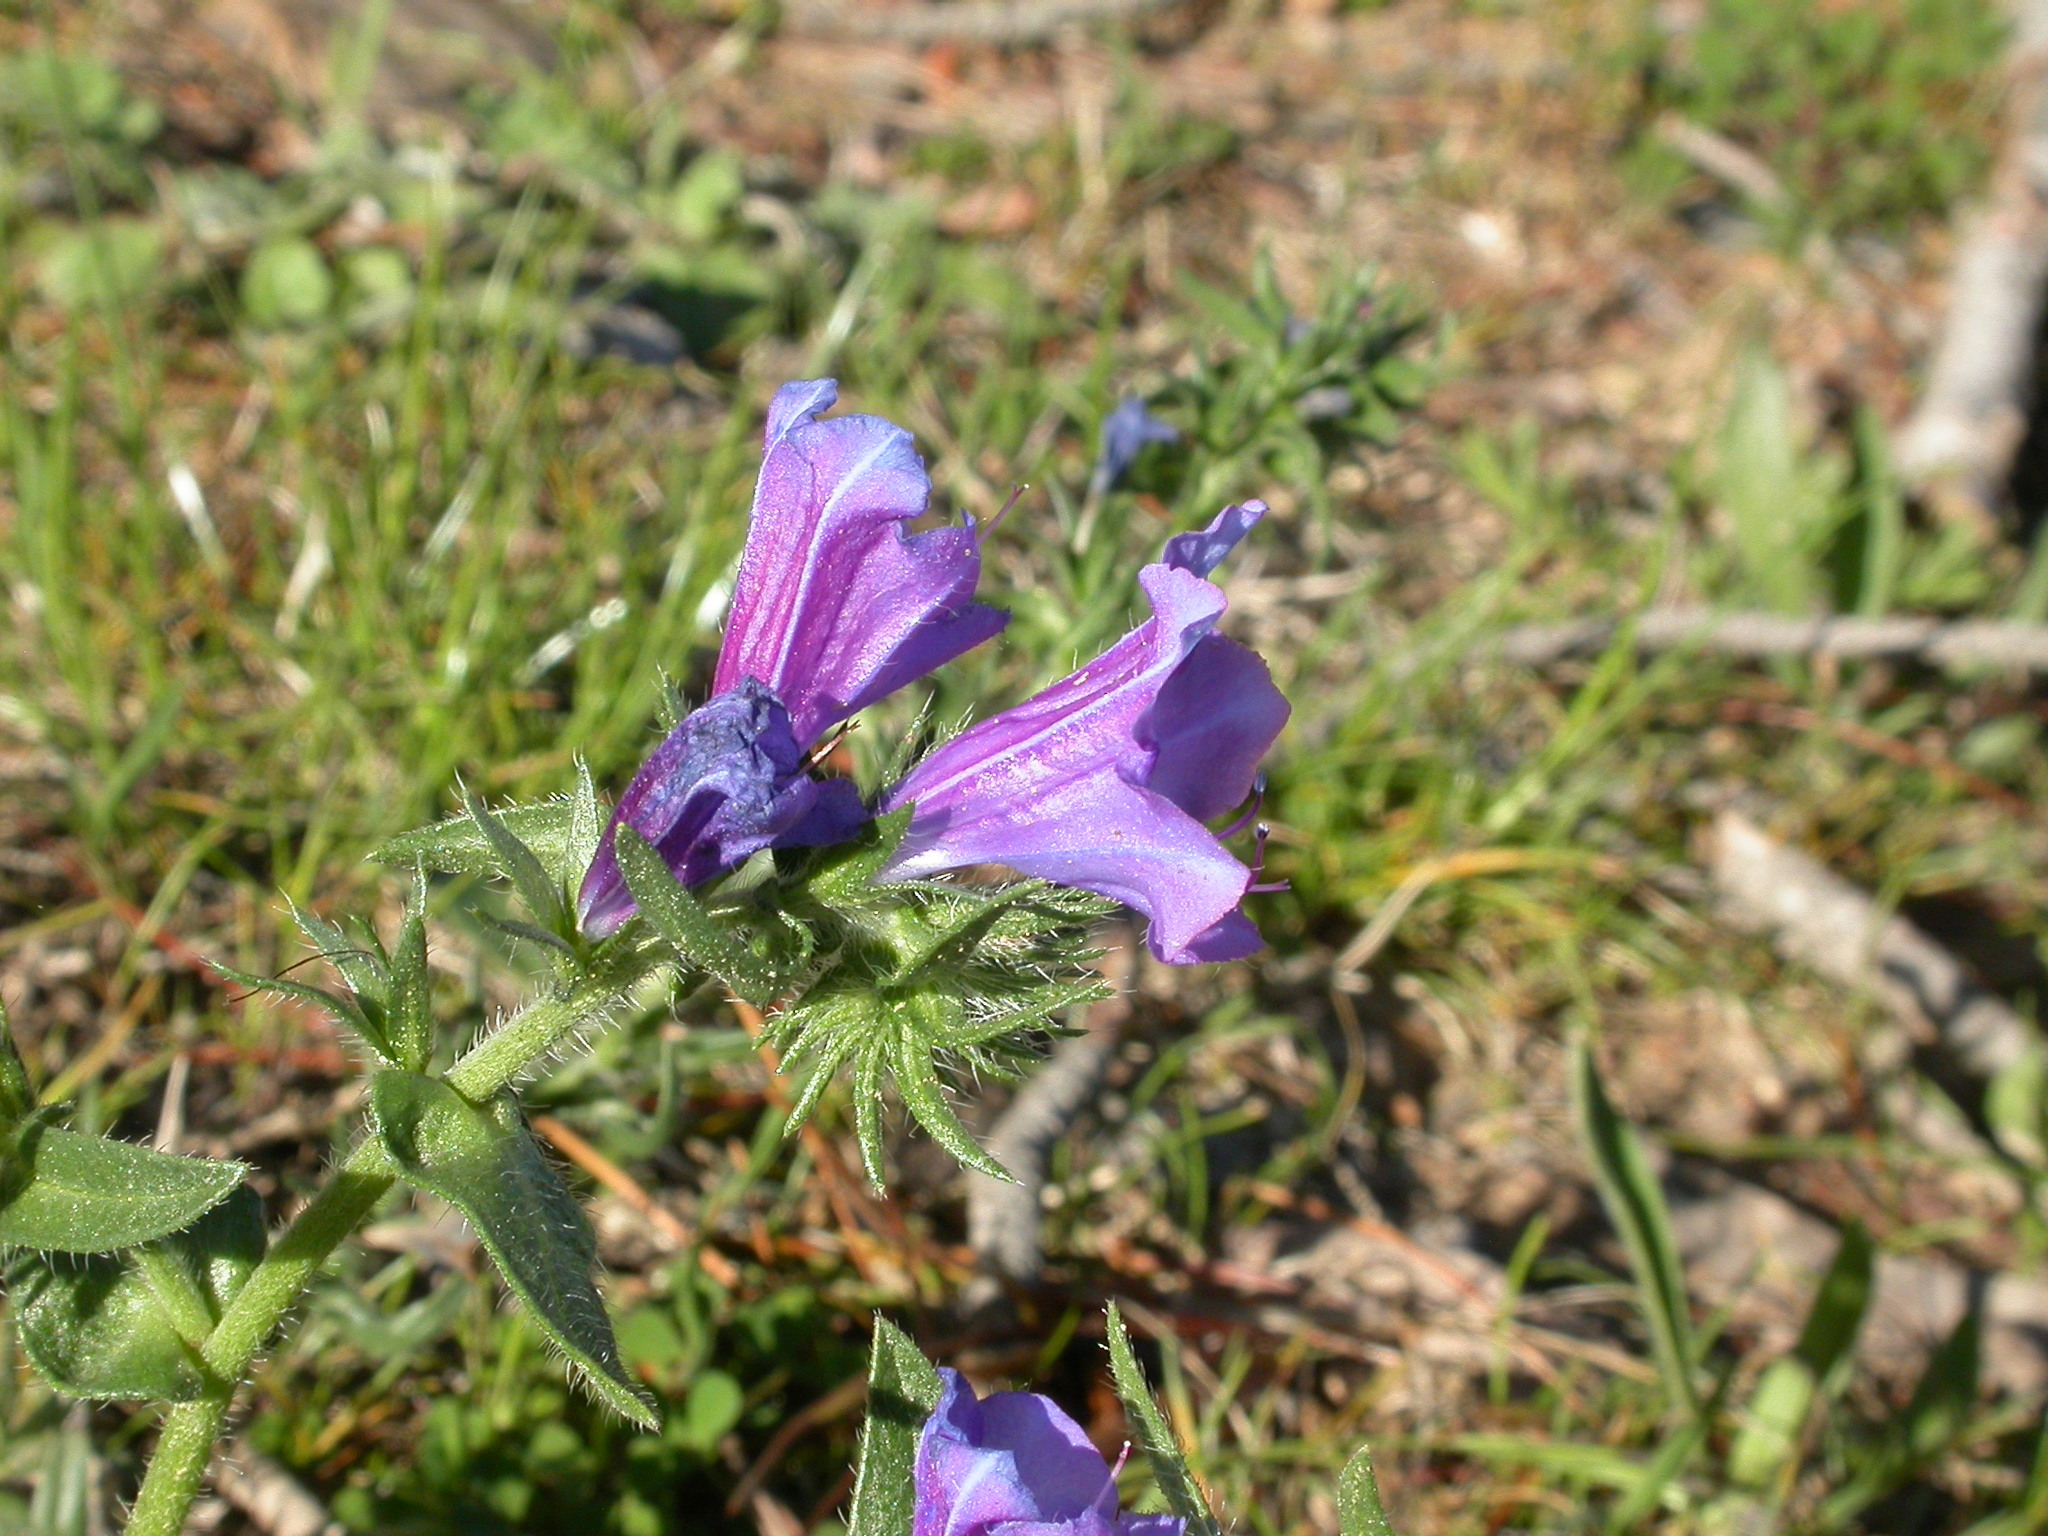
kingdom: Plantae
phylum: Tracheophyta
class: Magnoliopsida
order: Boraginales
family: Boraginaceae
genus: Echium
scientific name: Echium plantagineum
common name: Purple viper's-bugloss
